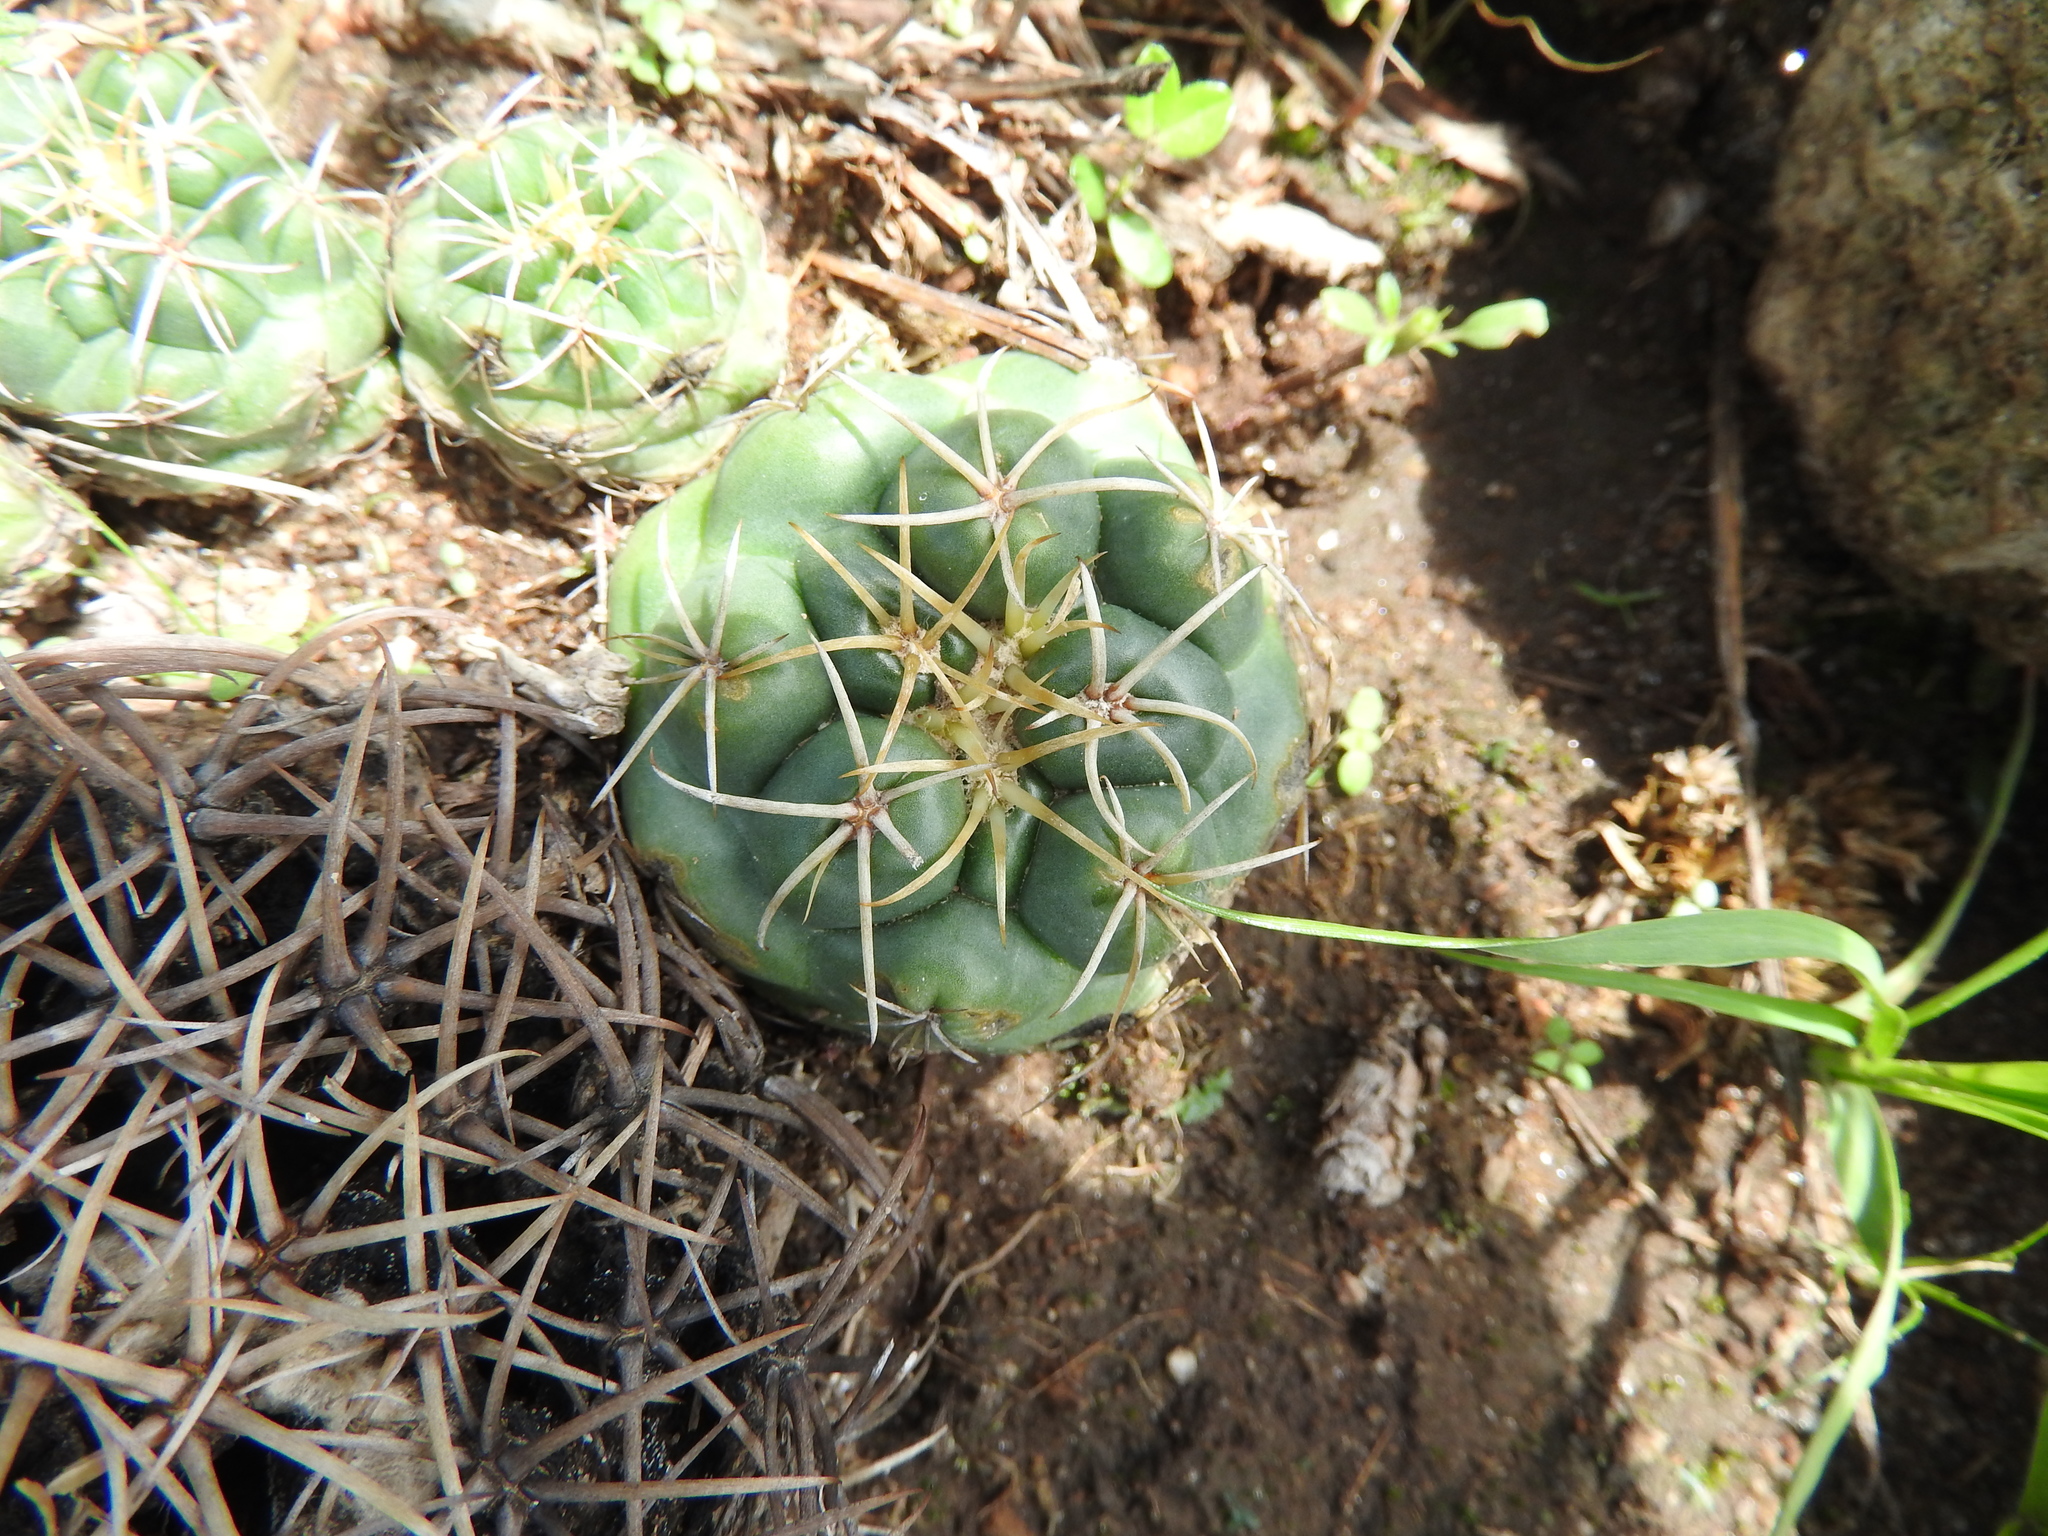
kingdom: Plantae
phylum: Tracheophyta
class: Magnoliopsida
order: Caryophyllales
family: Cactaceae
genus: Coryphantha
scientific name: Coryphantha elephantidens
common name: Elephant's tooth
